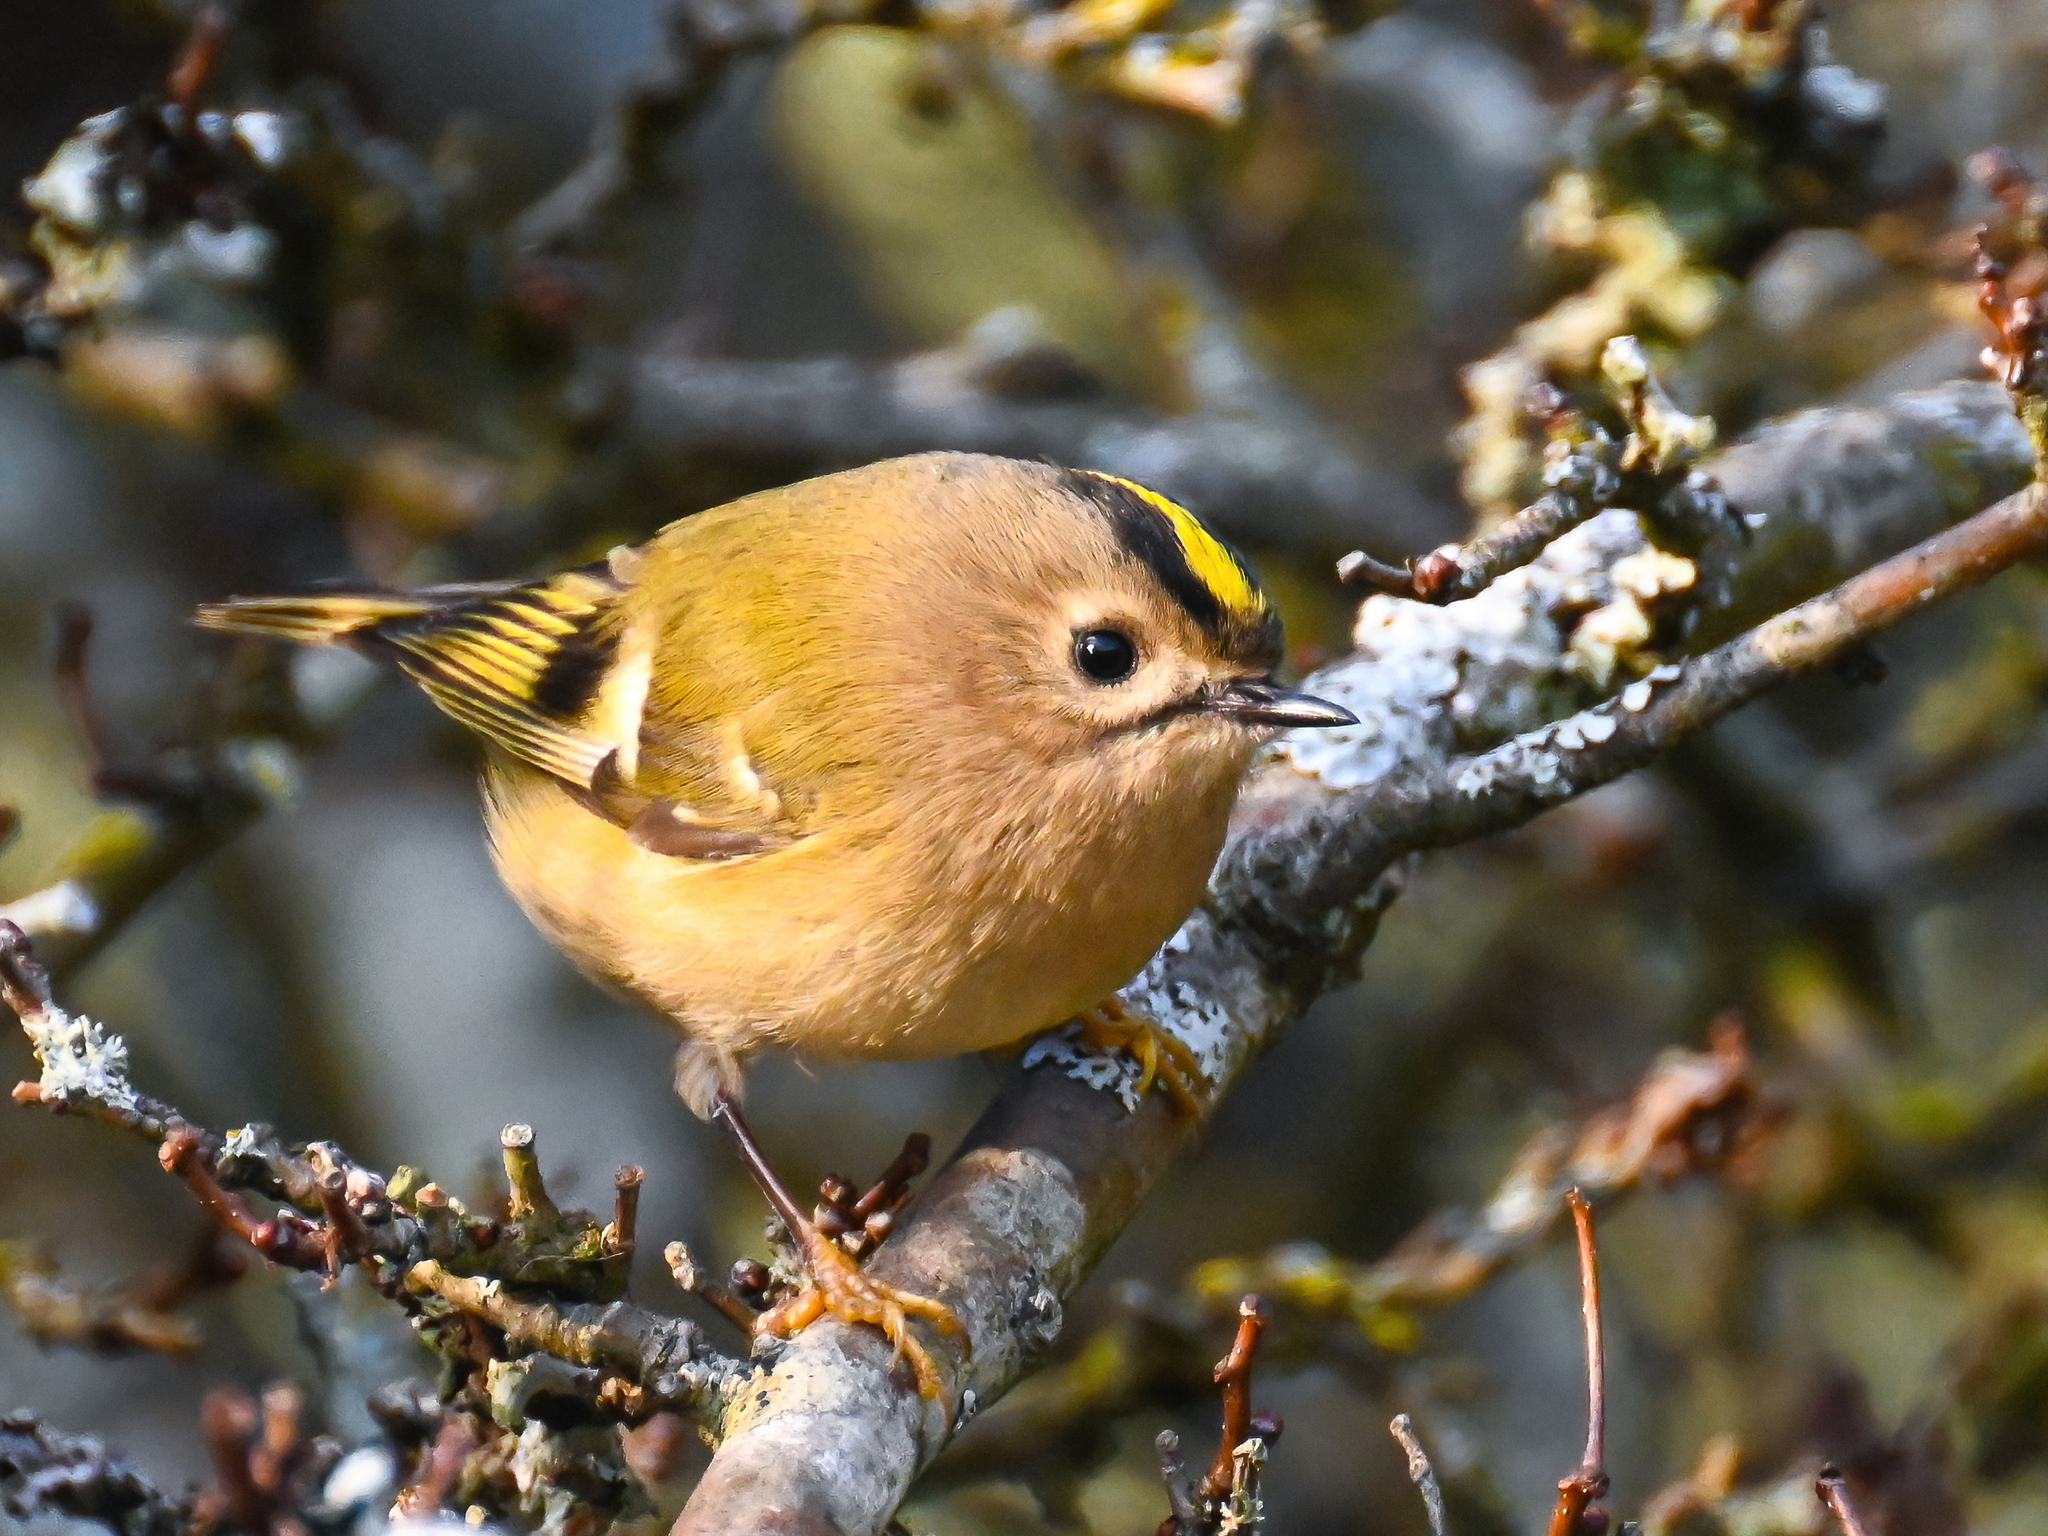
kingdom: Animalia
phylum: Chordata
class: Aves
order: Passeriformes
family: Regulidae
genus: Regulus
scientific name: Regulus regulus
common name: Goldcrest
